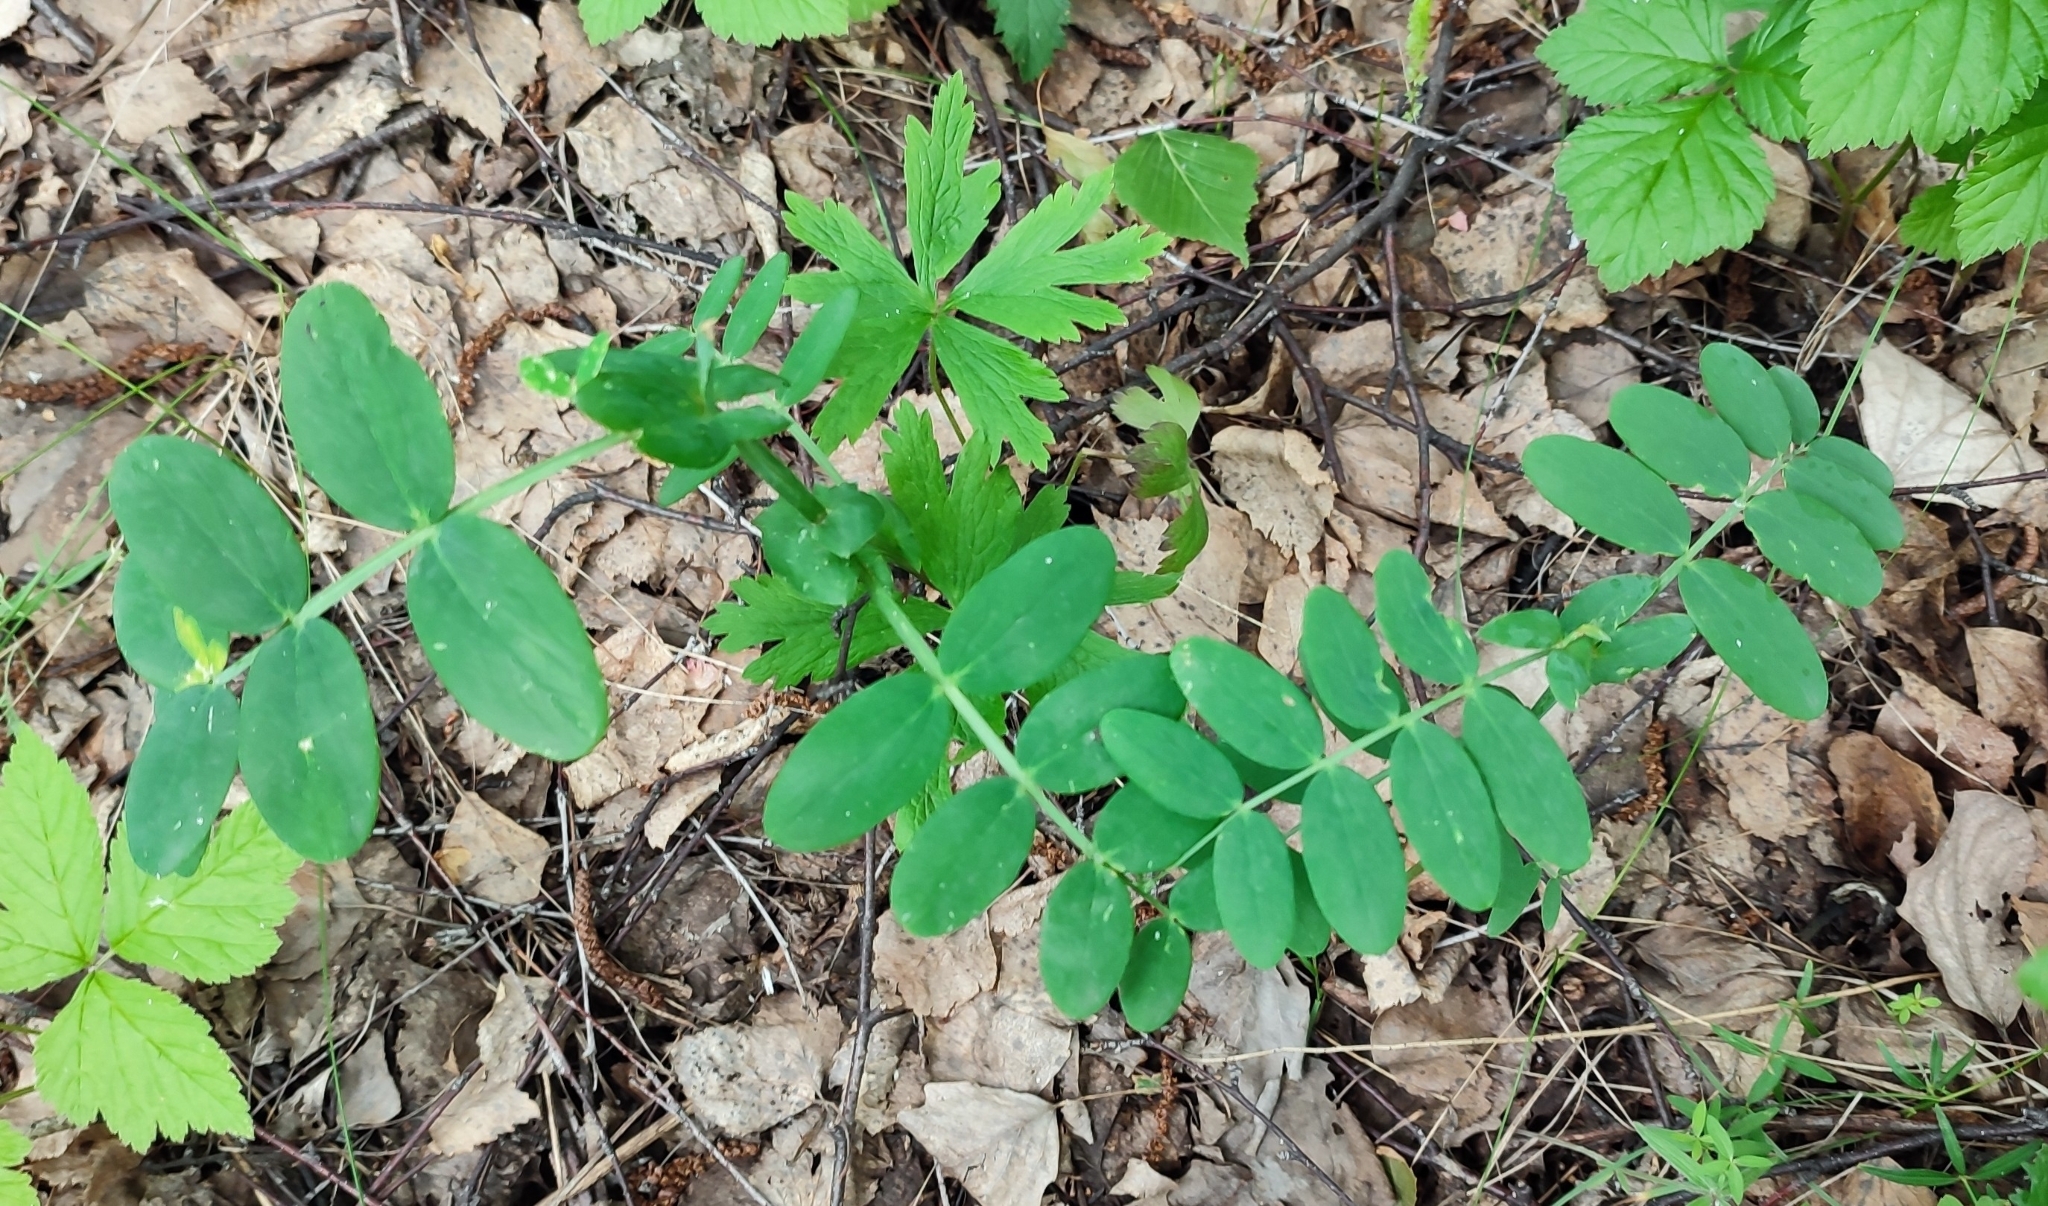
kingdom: Plantae
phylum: Tracheophyta
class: Magnoliopsida
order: Fabales
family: Fabaceae
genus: Lathyrus
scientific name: Lathyrus pisiformis
